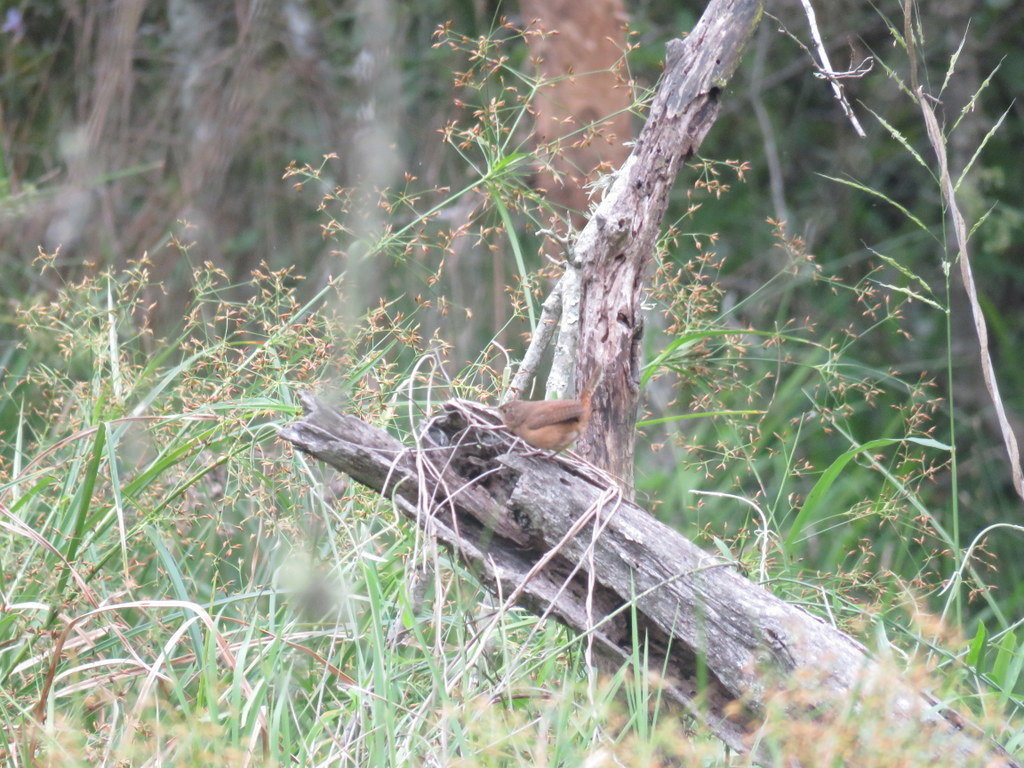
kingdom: Animalia
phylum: Chordata
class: Aves
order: Passeriformes
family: Troglodytidae
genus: Troglodytes
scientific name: Troglodytes aedon
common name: House wren
